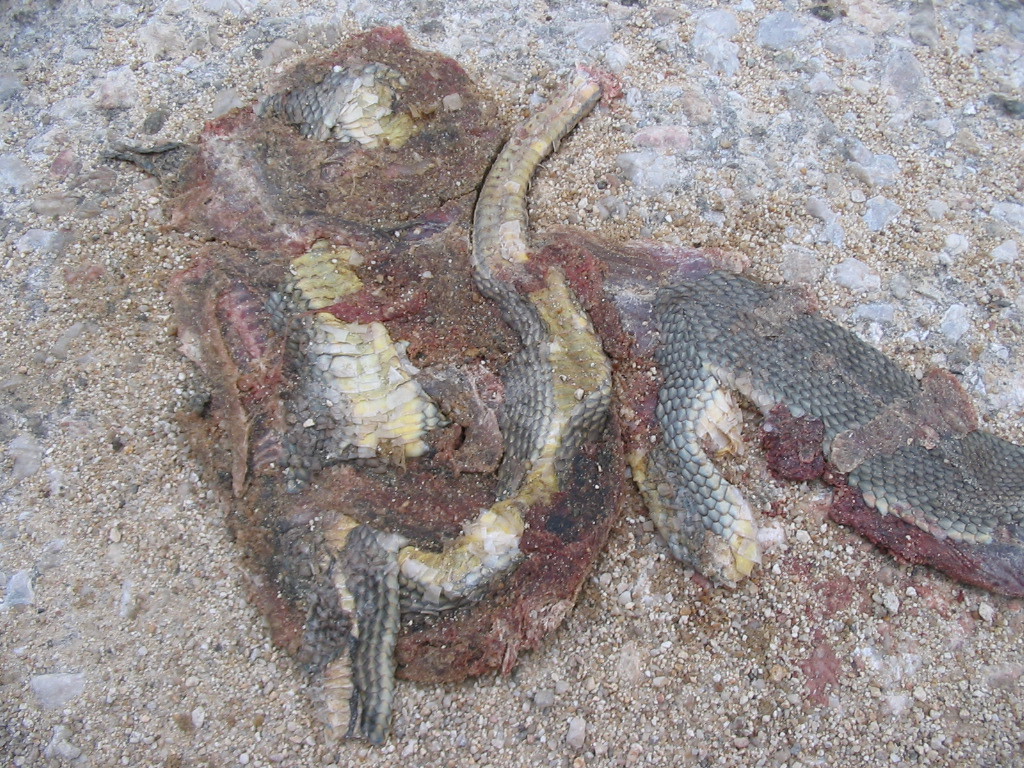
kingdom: Animalia
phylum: Chordata
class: Squamata
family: Colubridae
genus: Dolichophis
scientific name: Dolichophis caspius
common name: Large whip snake
